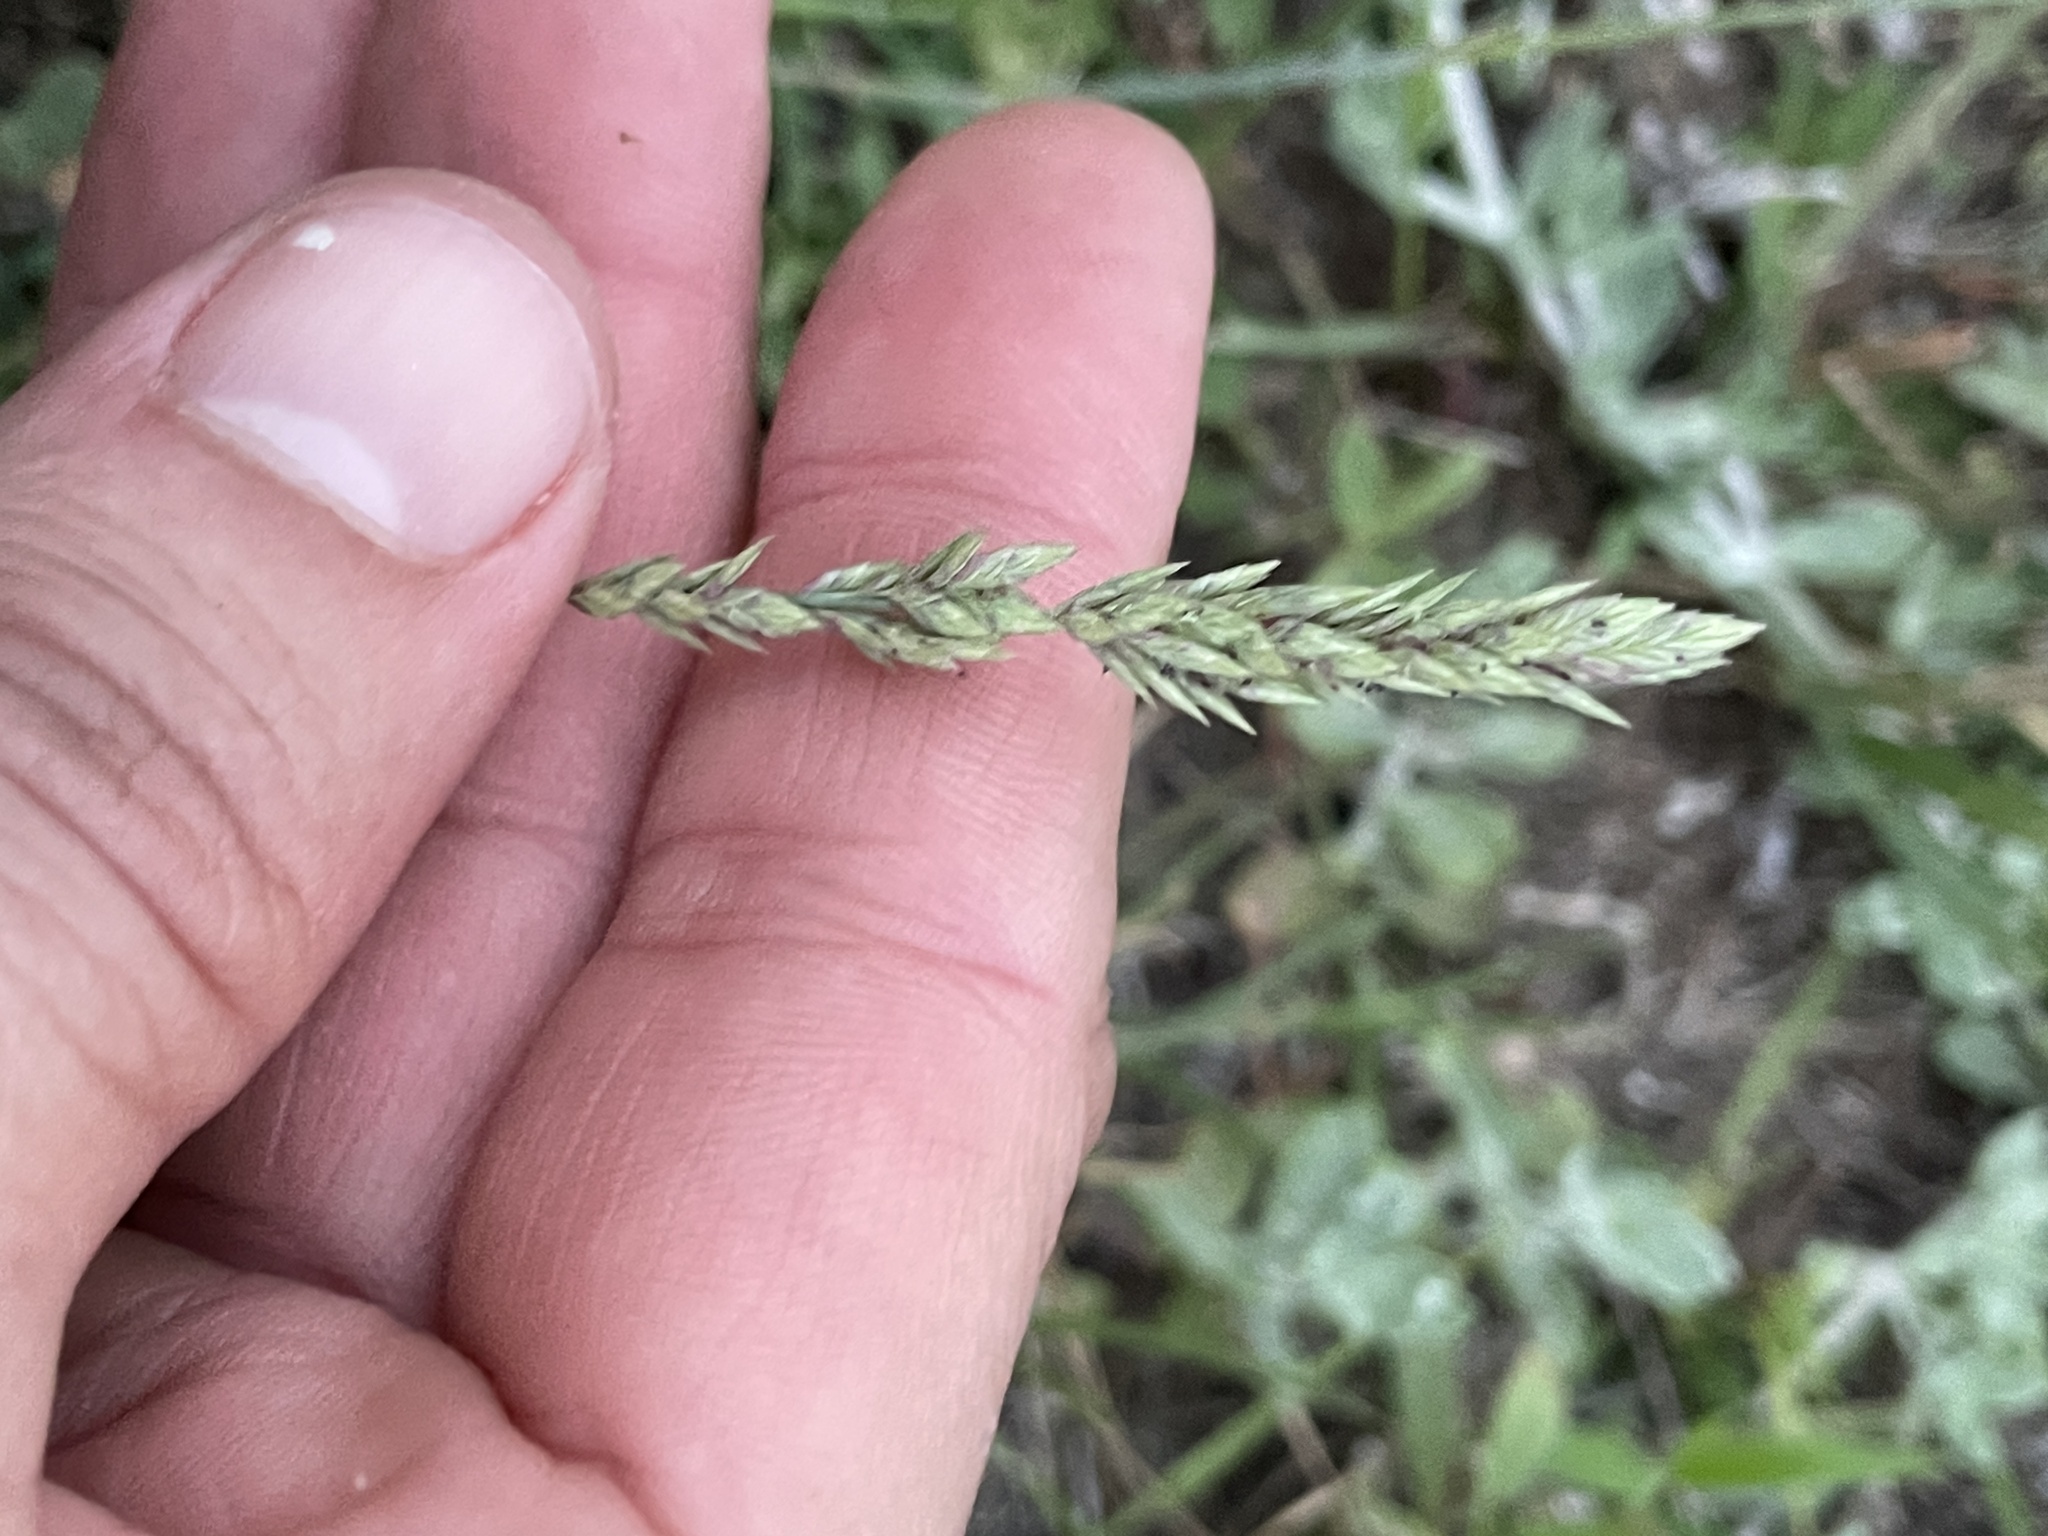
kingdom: Plantae
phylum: Tracheophyta
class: Liliopsida
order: Poales
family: Poaceae
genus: Eragrostis
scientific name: Eragrostis secundiflora
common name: Red love grass
